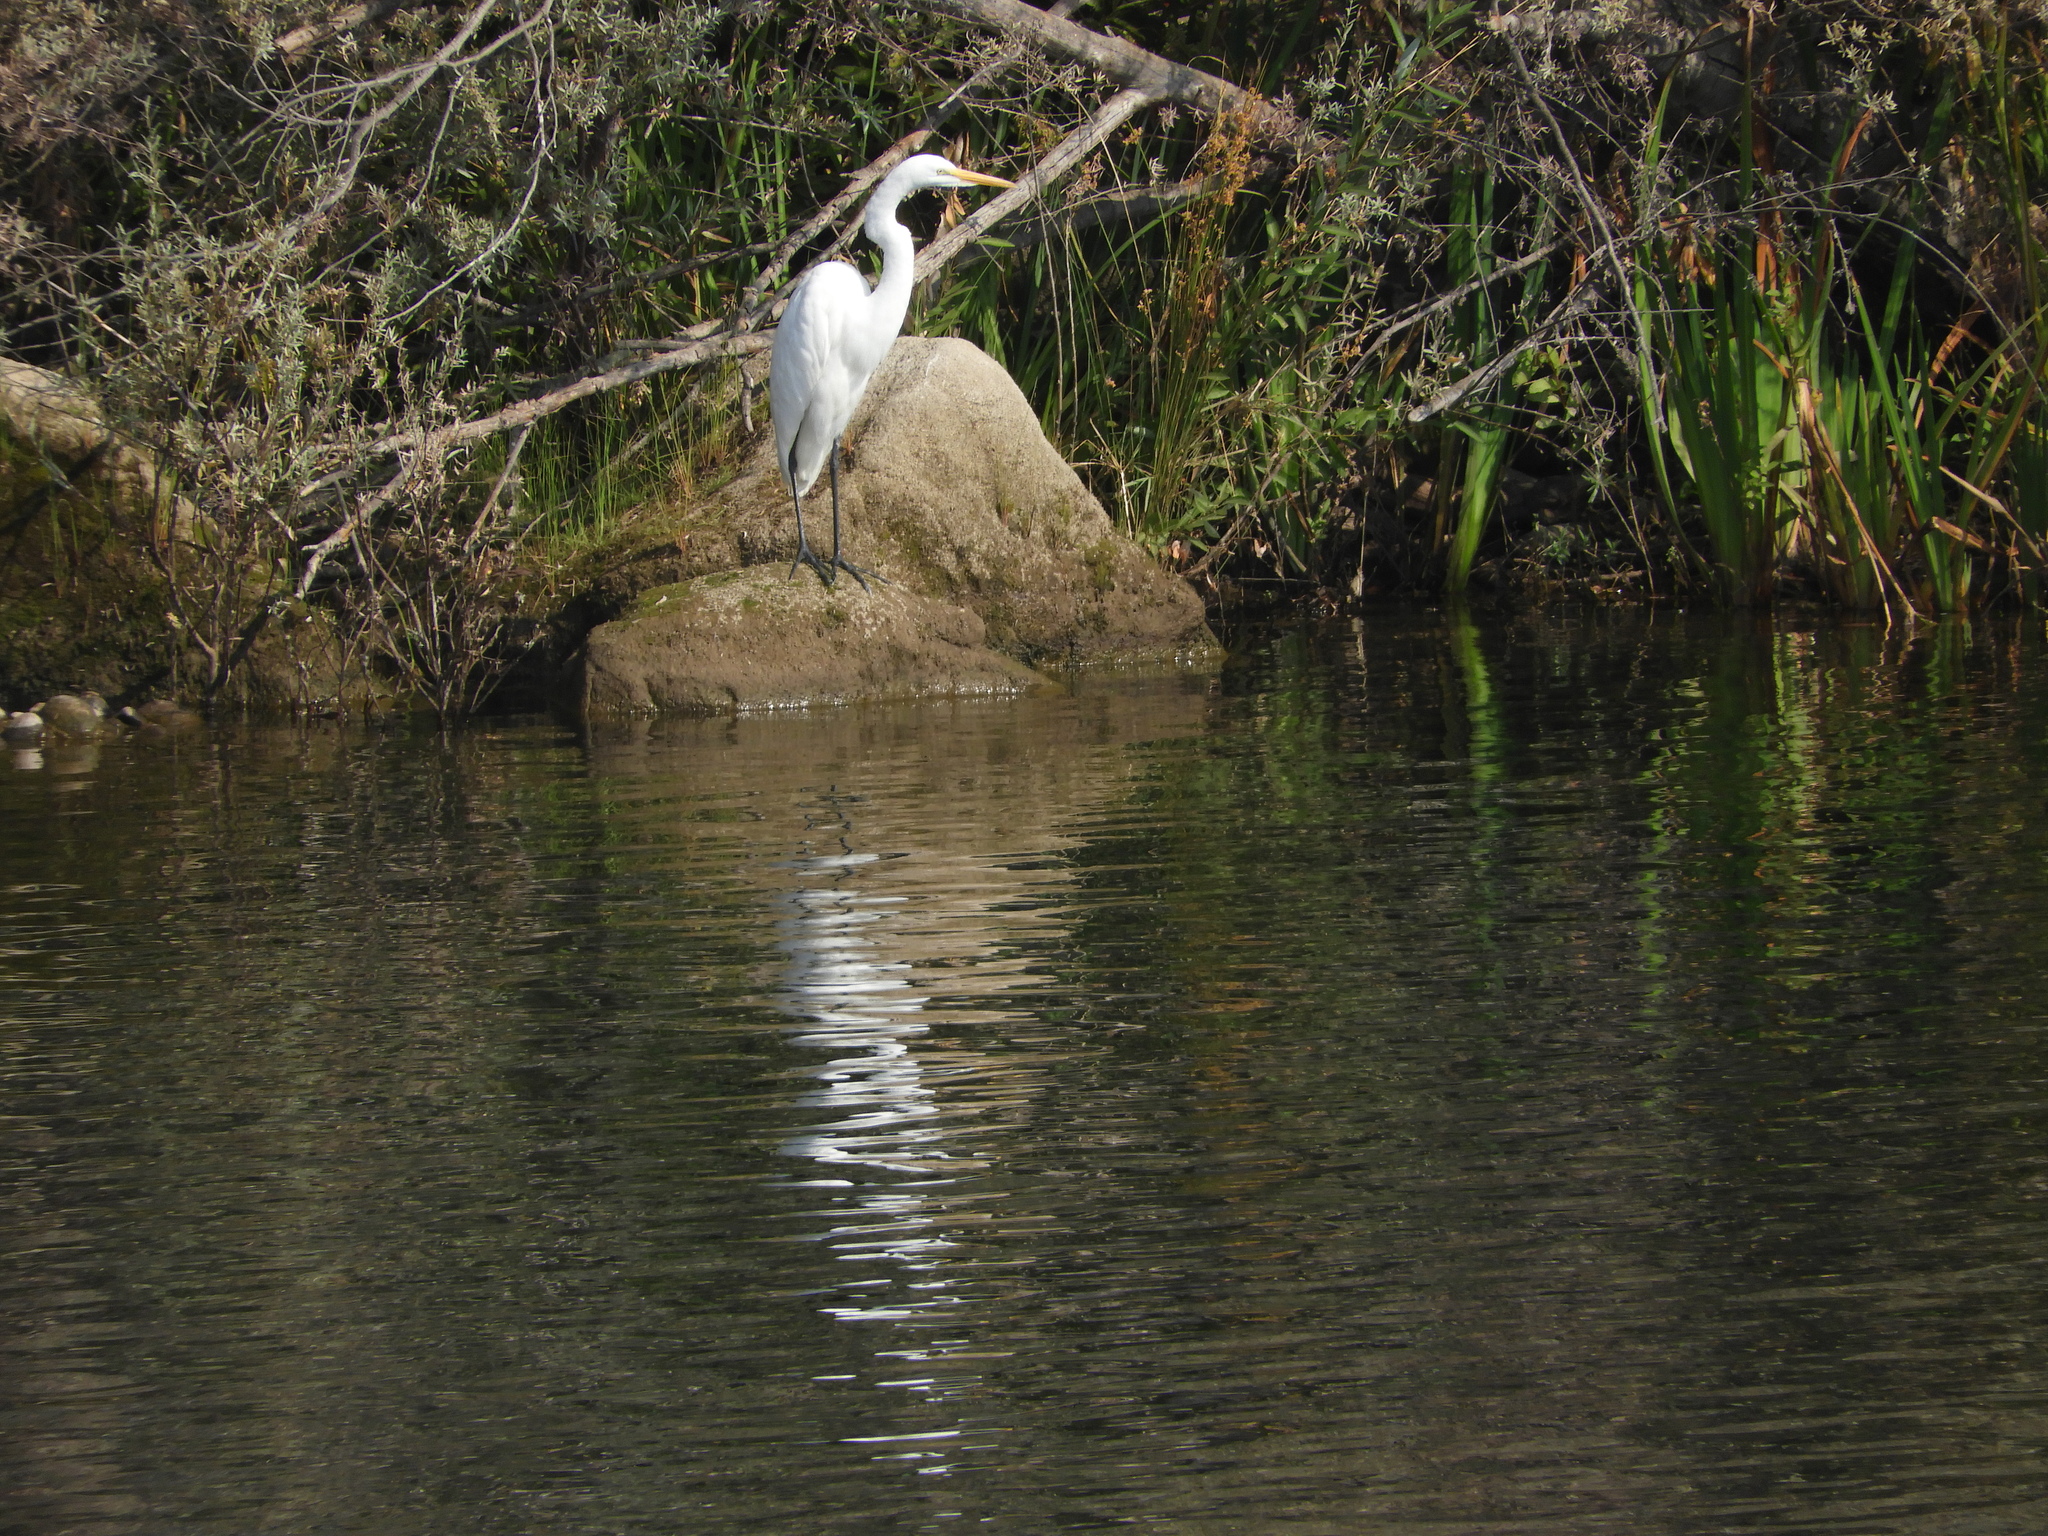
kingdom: Animalia
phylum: Chordata
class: Aves
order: Pelecaniformes
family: Ardeidae
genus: Ardea
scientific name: Ardea alba
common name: Great egret
